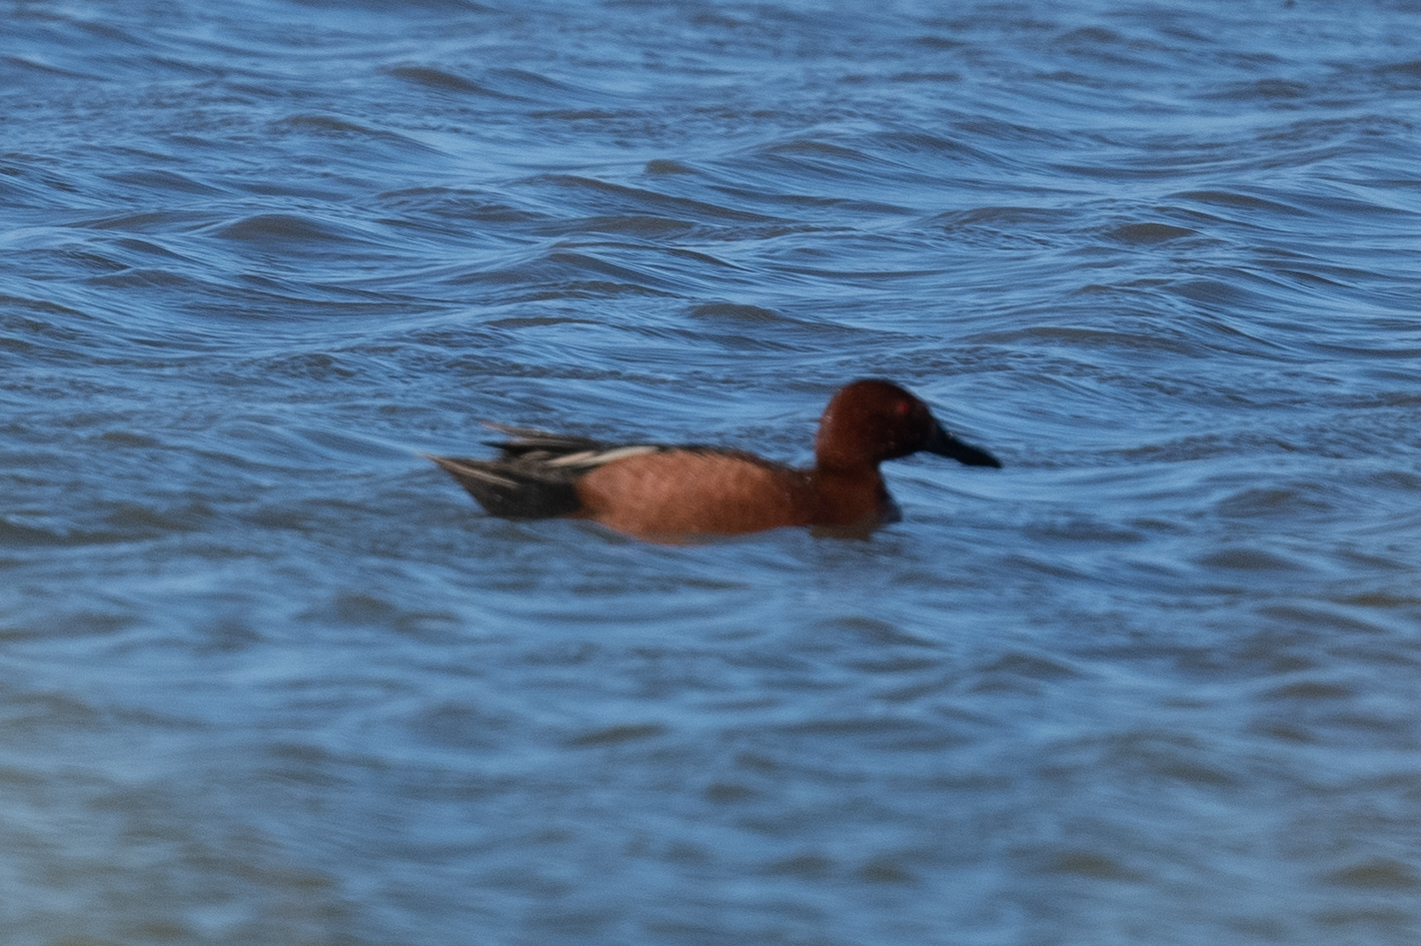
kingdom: Animalia
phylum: Chordata
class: Aves
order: Anseriformes
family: Anatidae
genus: Spatula
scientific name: Spatula cyanoptera
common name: Cinnamon teal
